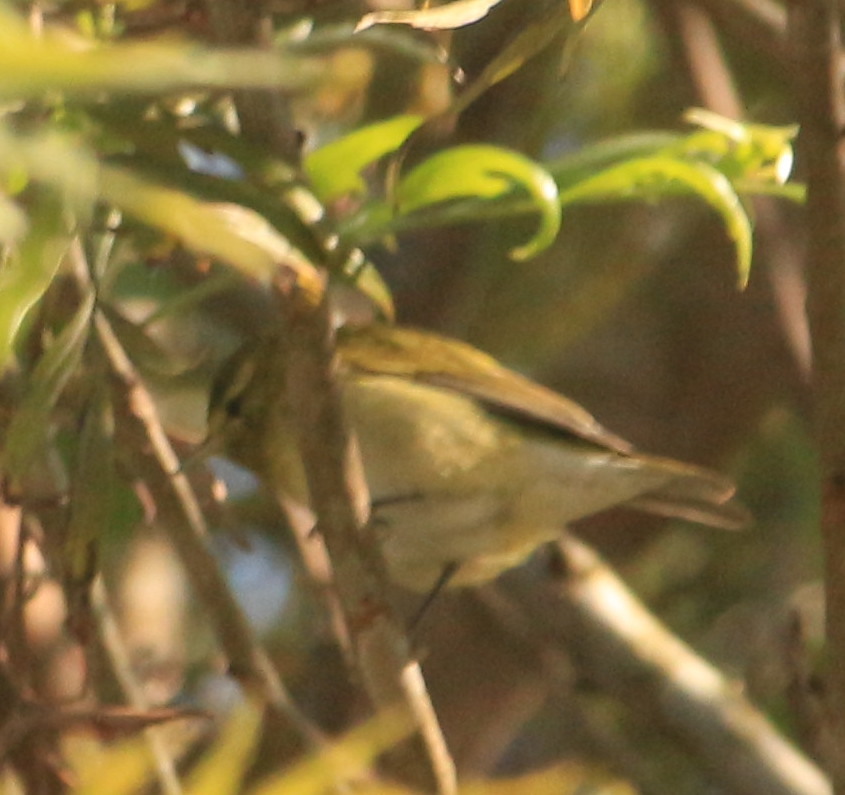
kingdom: Animalia
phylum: Chordata
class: Aves
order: Passeriformes
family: Parulidae
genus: Leiothlypis
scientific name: Leiothlypis peregrina
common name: Tennessee warbler
